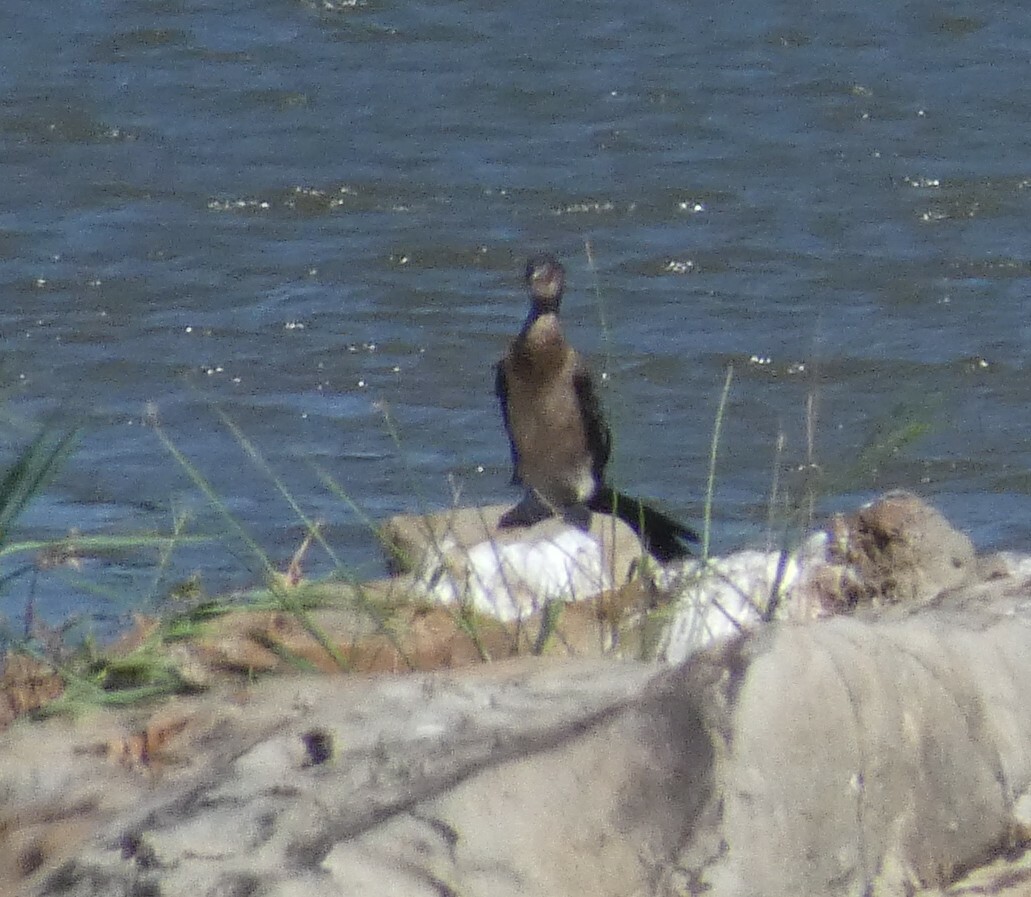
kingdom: Animalia
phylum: Chordata
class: Aves
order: Suliformes
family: Phalacrocoracidae
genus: Microcarbo
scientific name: Microcarbo africanus
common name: Long-tailed cormorant
